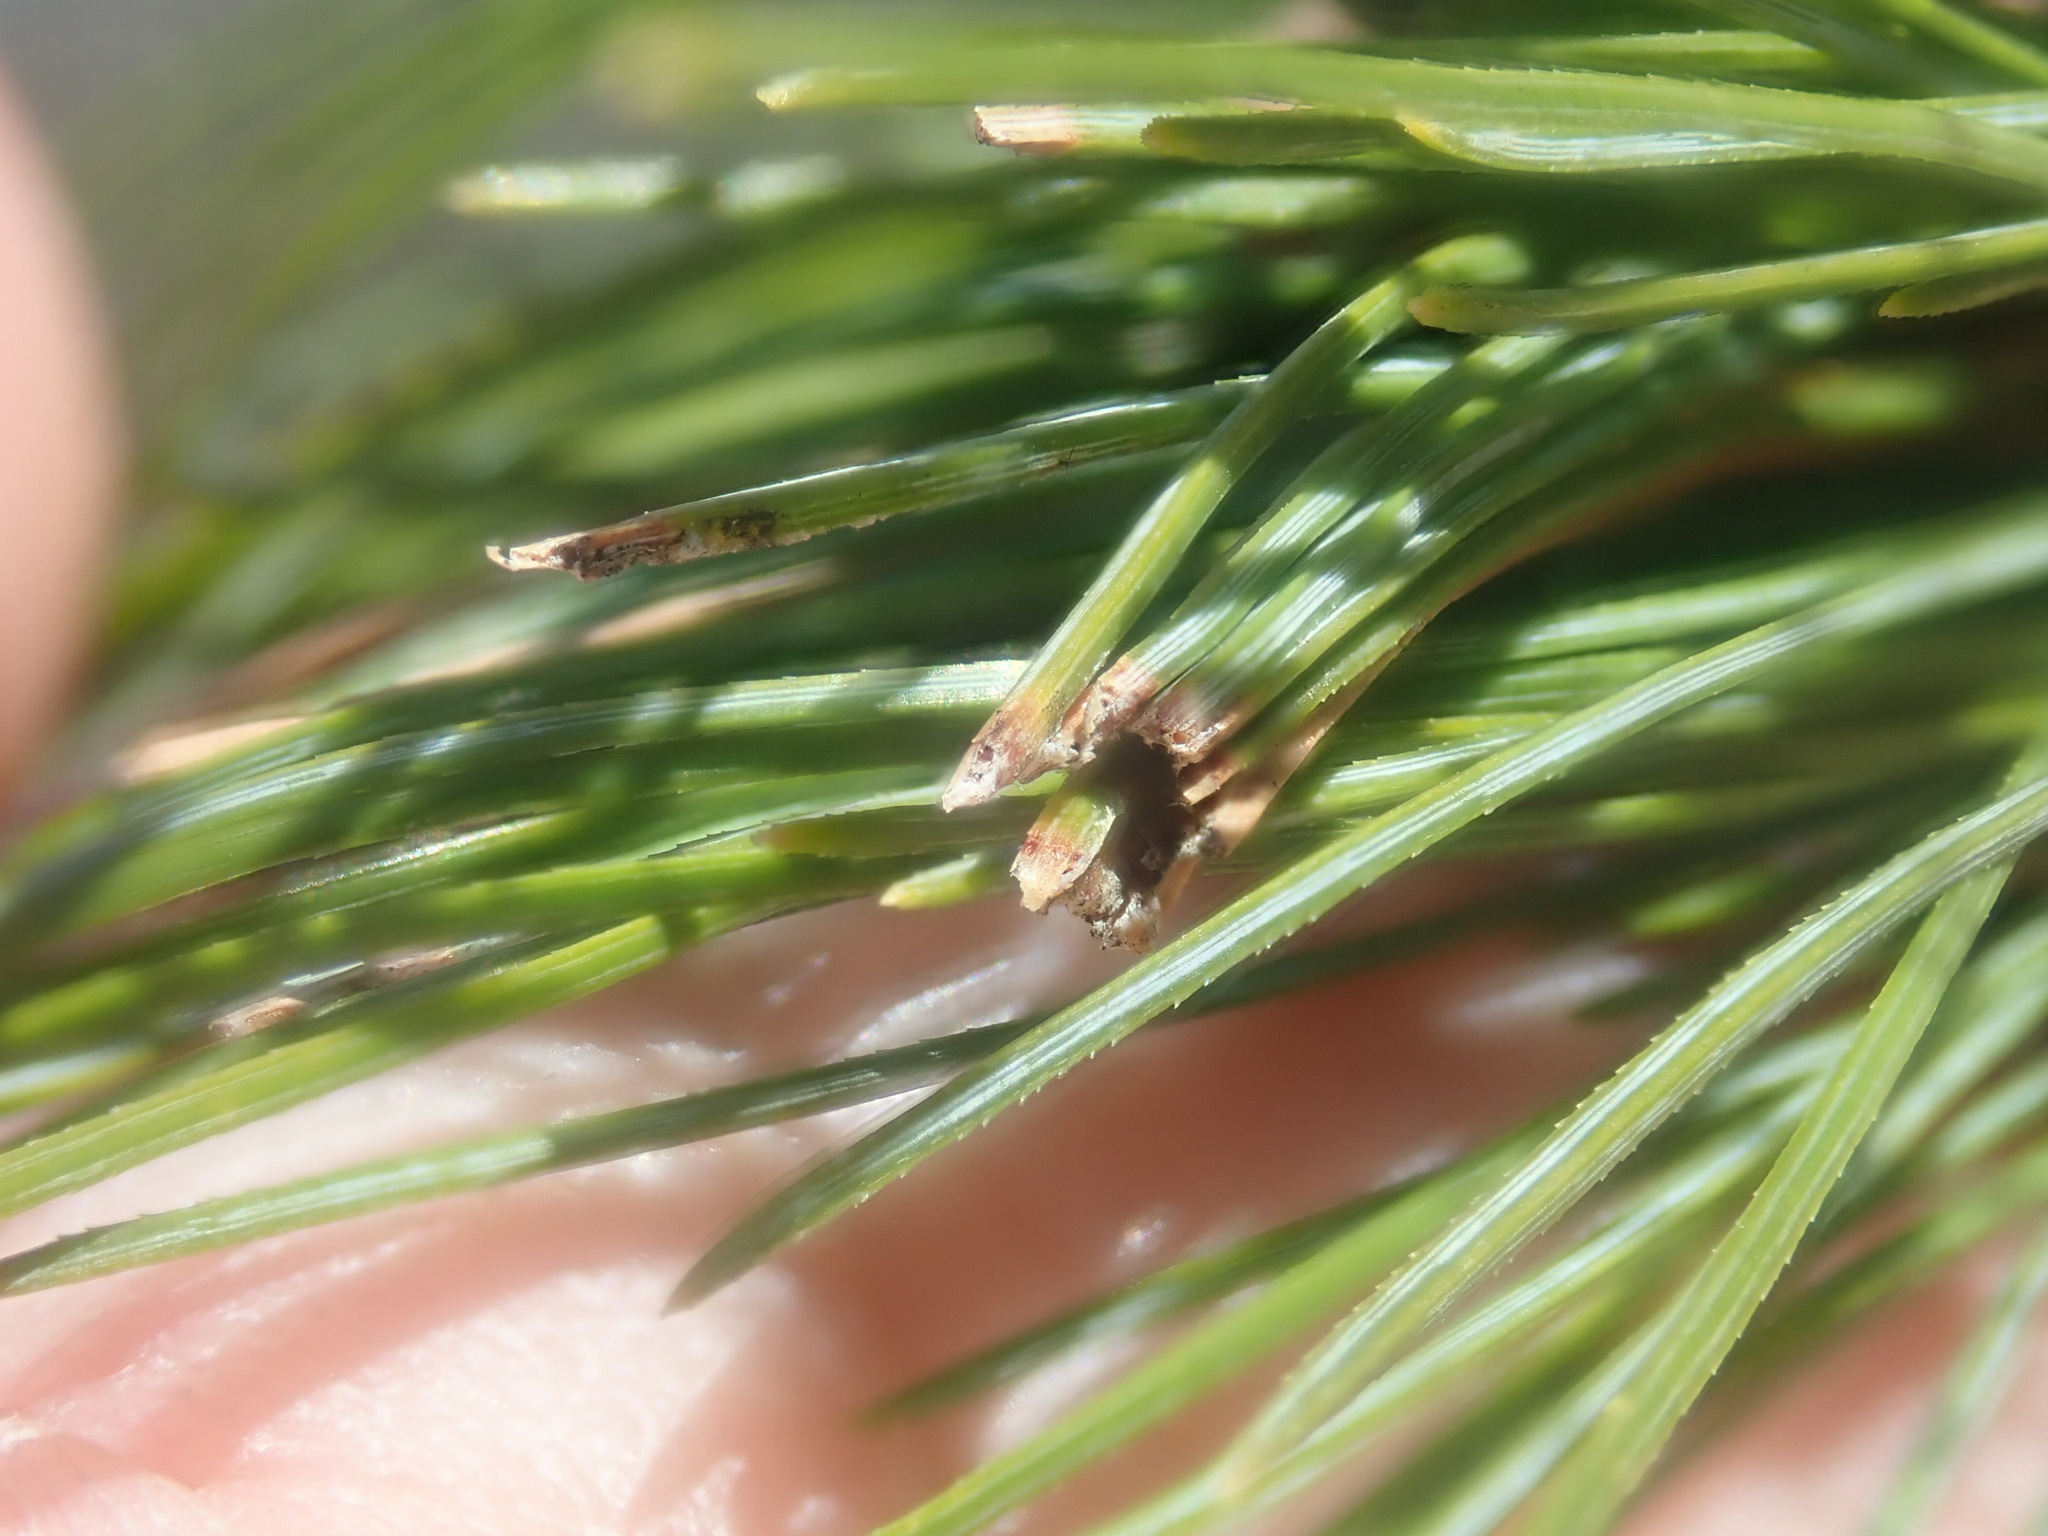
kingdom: Animalia
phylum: Arthropoda
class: Insecta
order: Lepidoptera
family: Tortricidae
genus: Argyrotaenia
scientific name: Argyrotaenia pinatubana
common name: Pine tube moth
